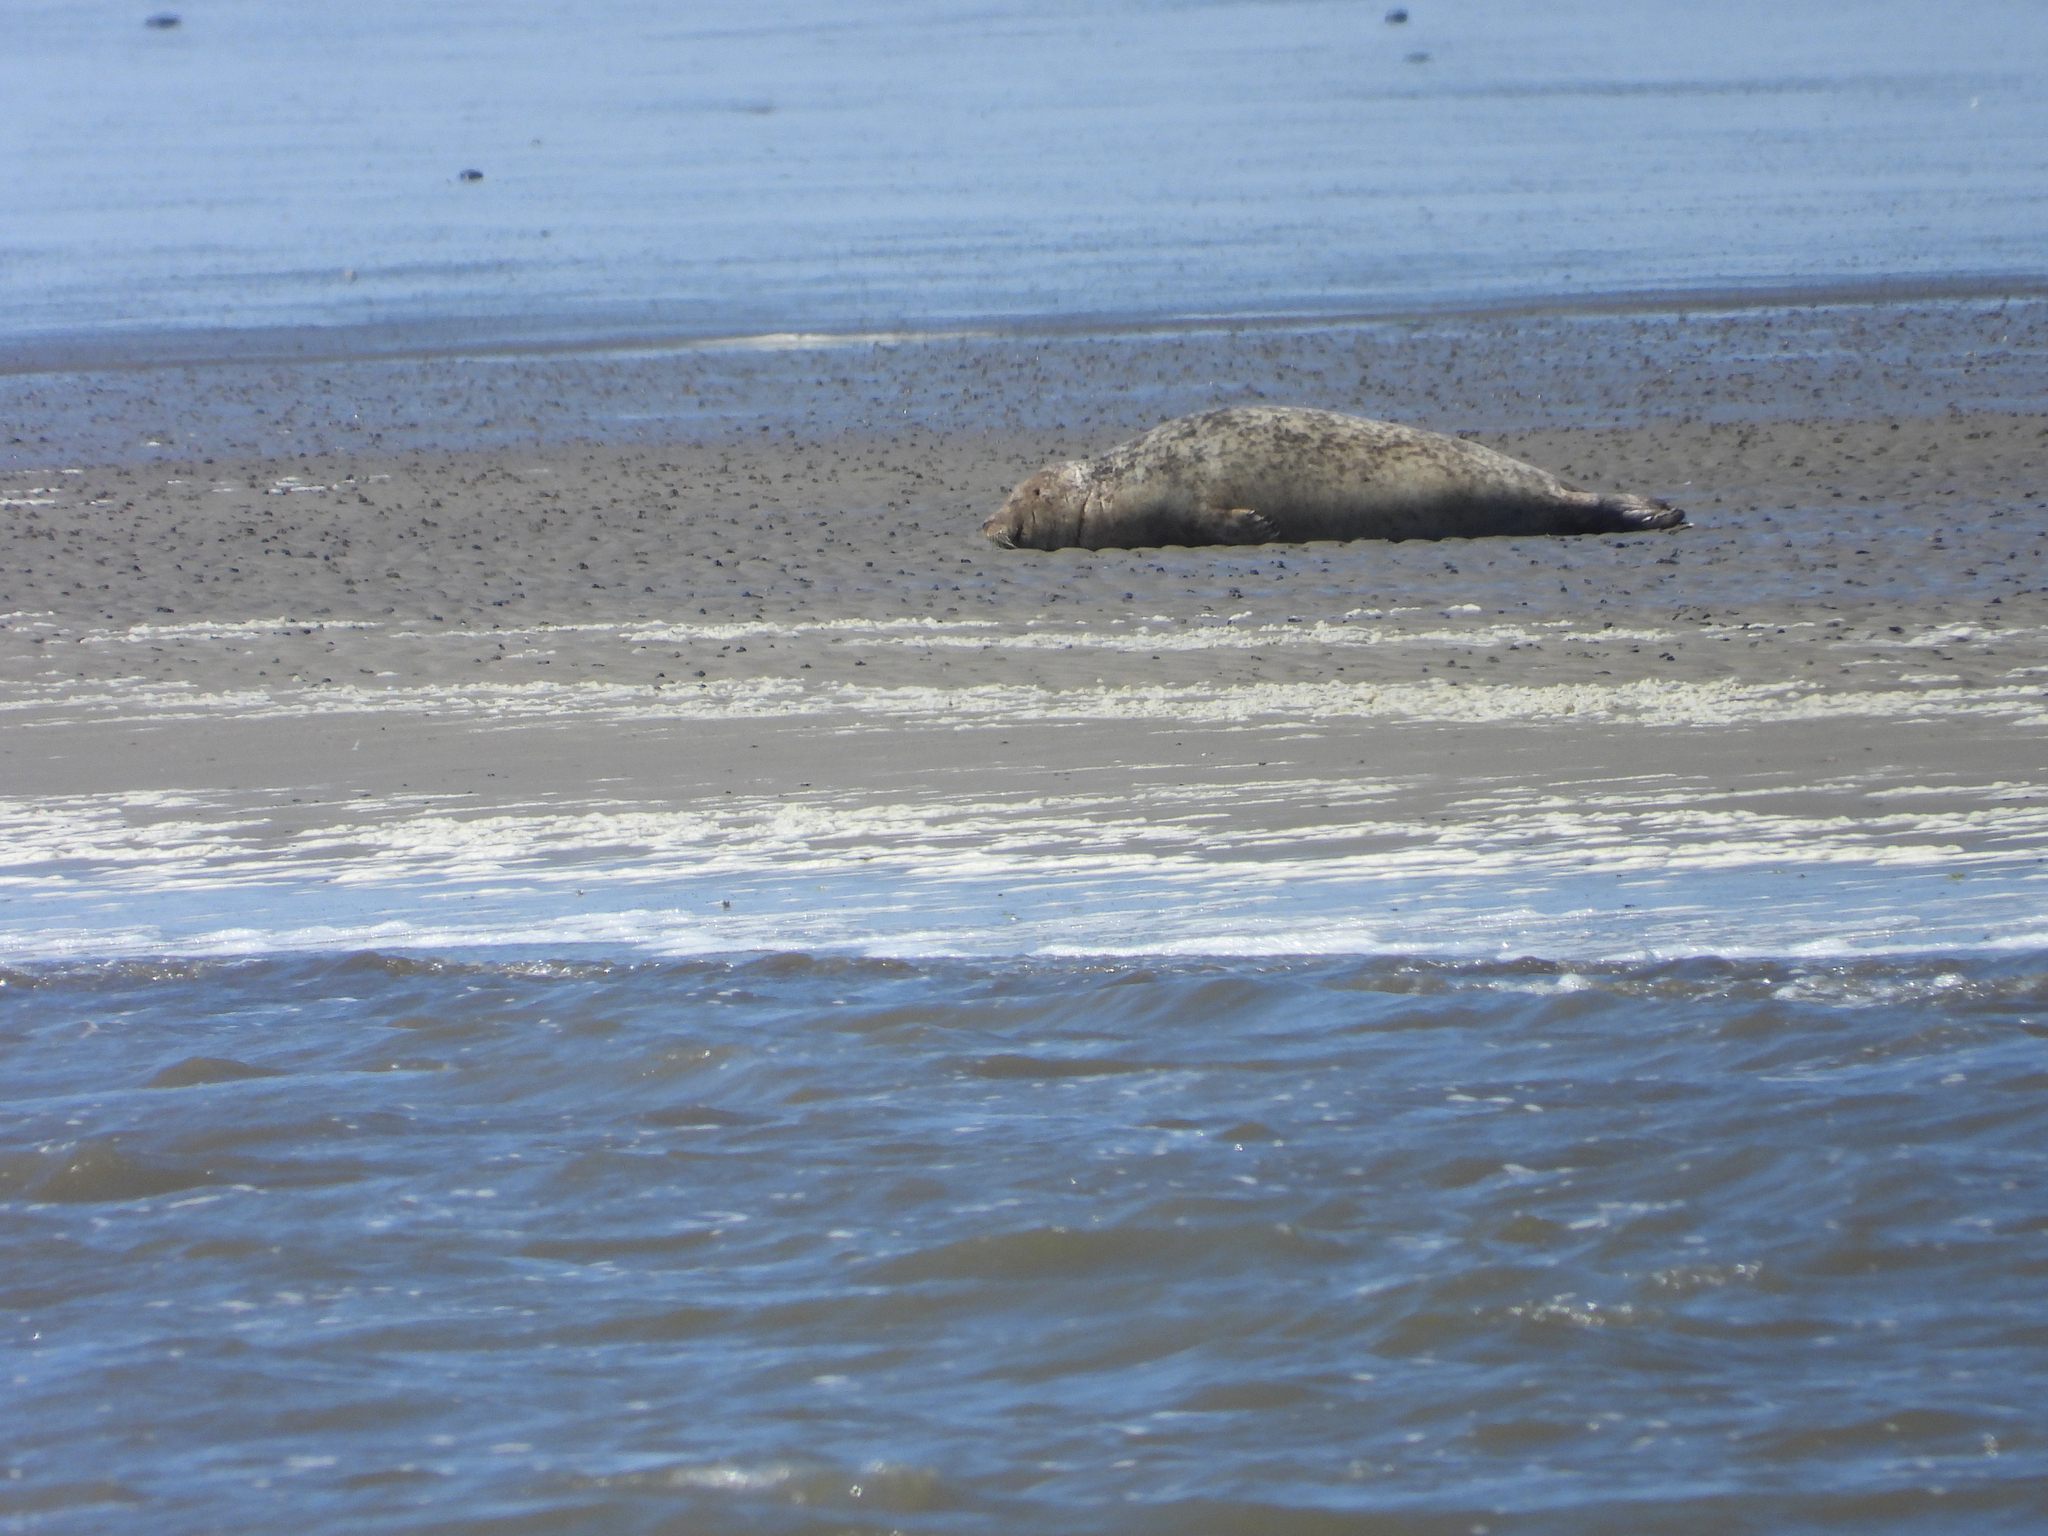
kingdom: Animalia
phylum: Chordata
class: Mammalia
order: Carnivora
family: Phocidae
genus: Phoca
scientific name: Phoca vitulina
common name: Harbor seal
